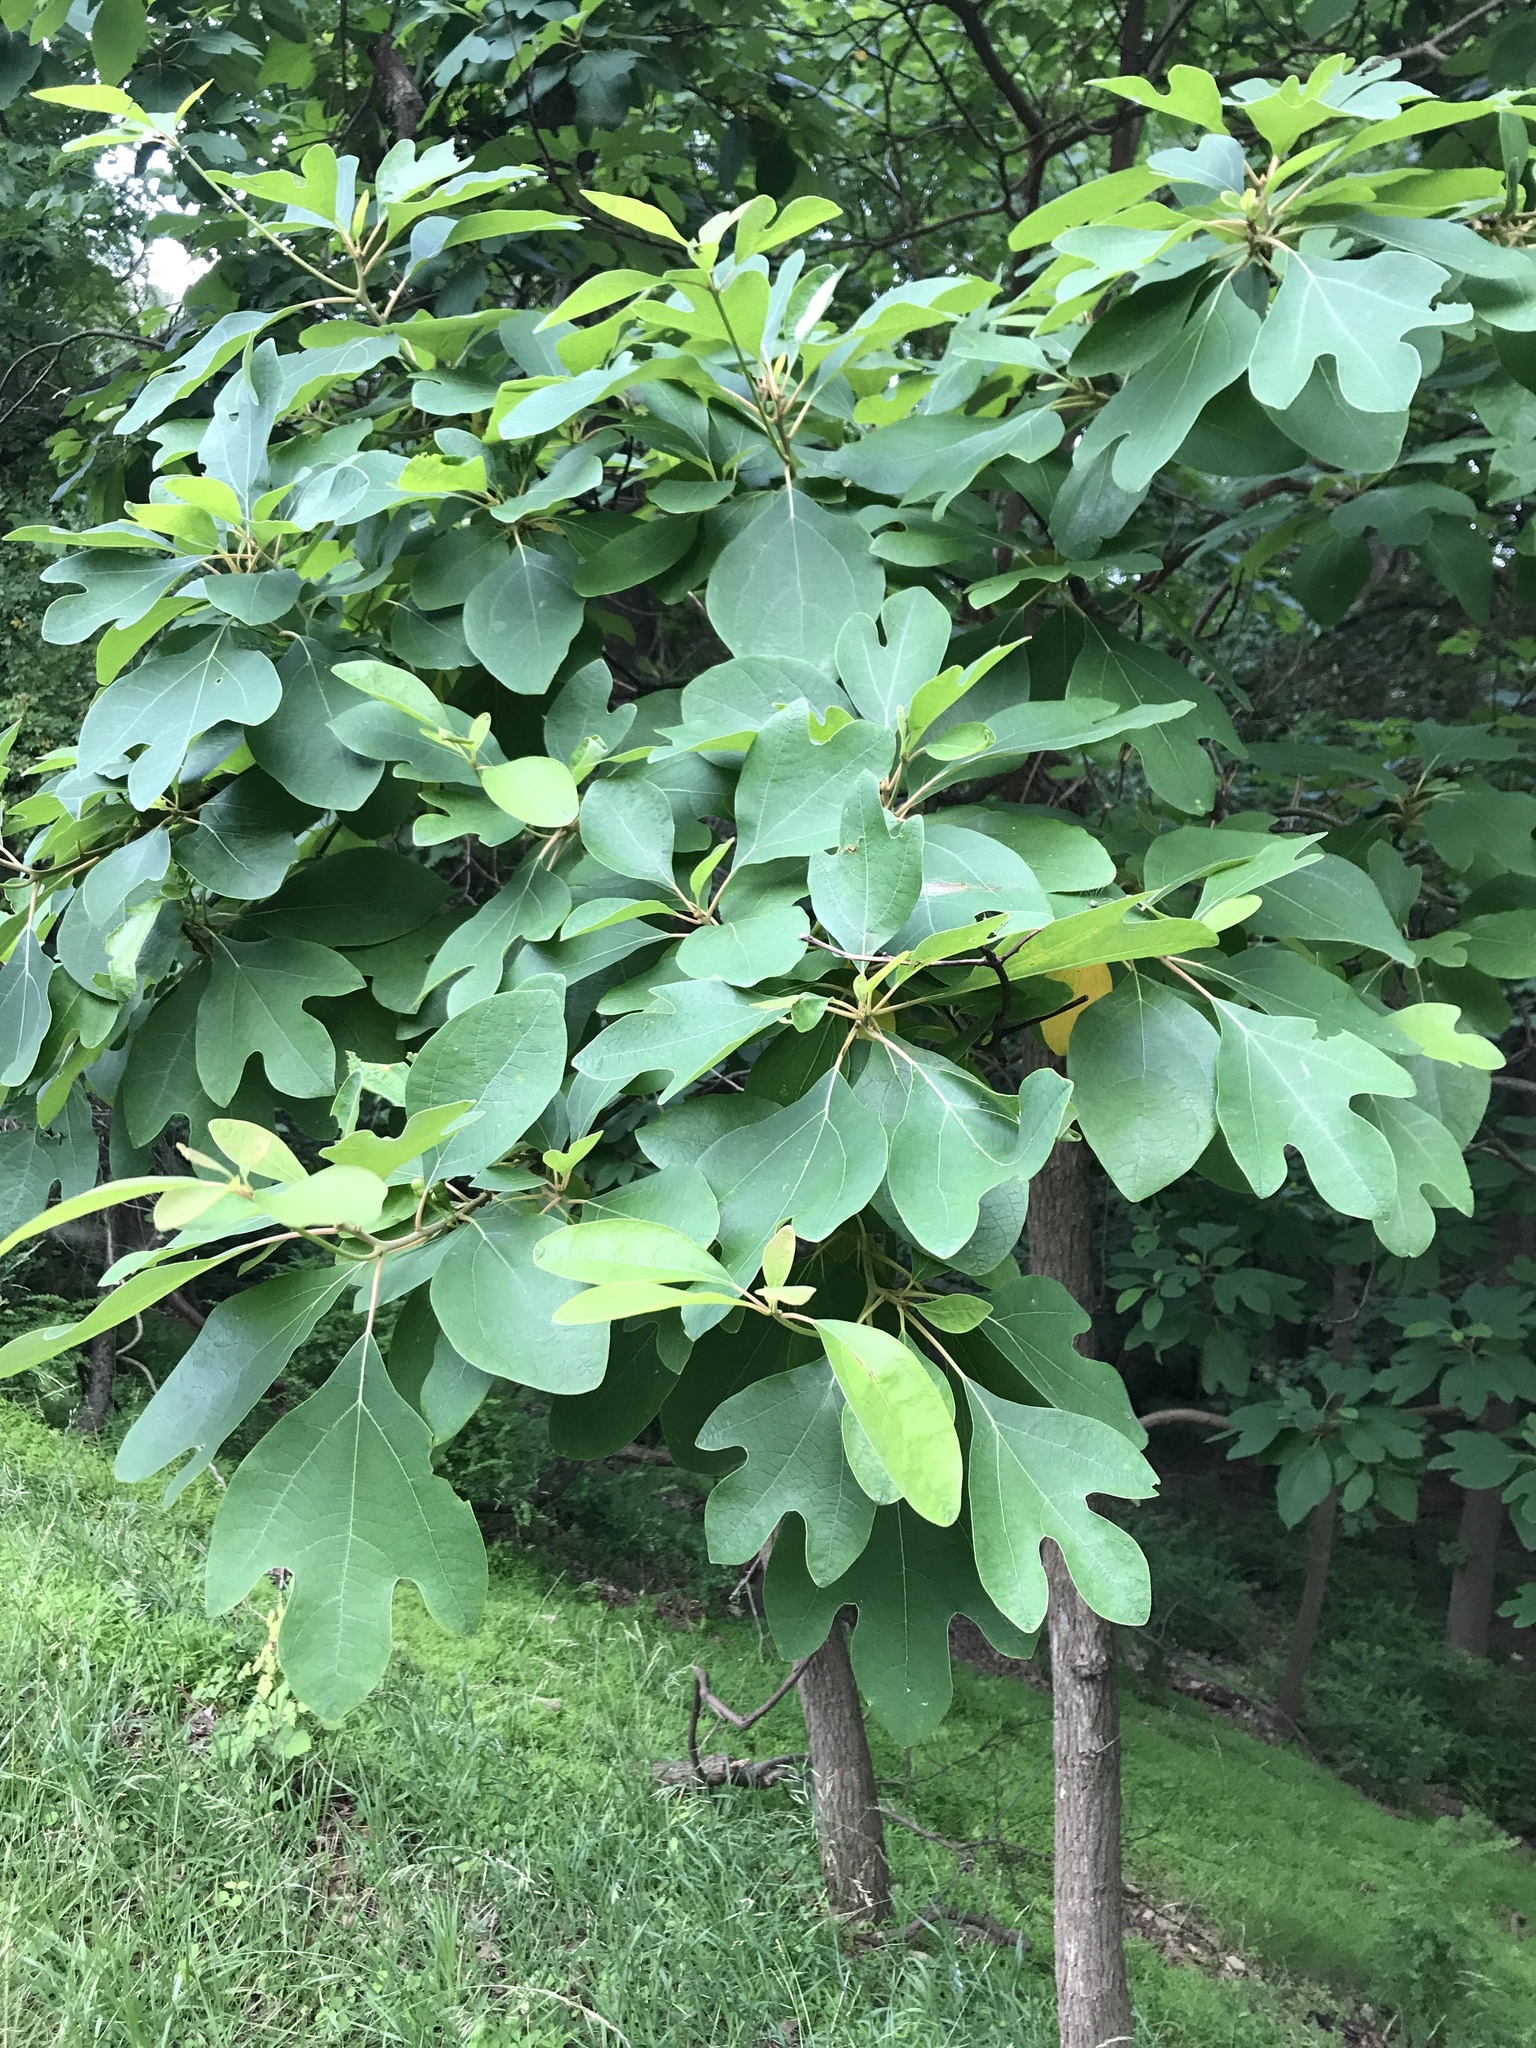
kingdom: Plantae
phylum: Tracheophyta
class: Magnoliopsida
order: Laurales
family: Lauraceae
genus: Sassafras
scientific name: Sassafras albidum
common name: Sassafras
